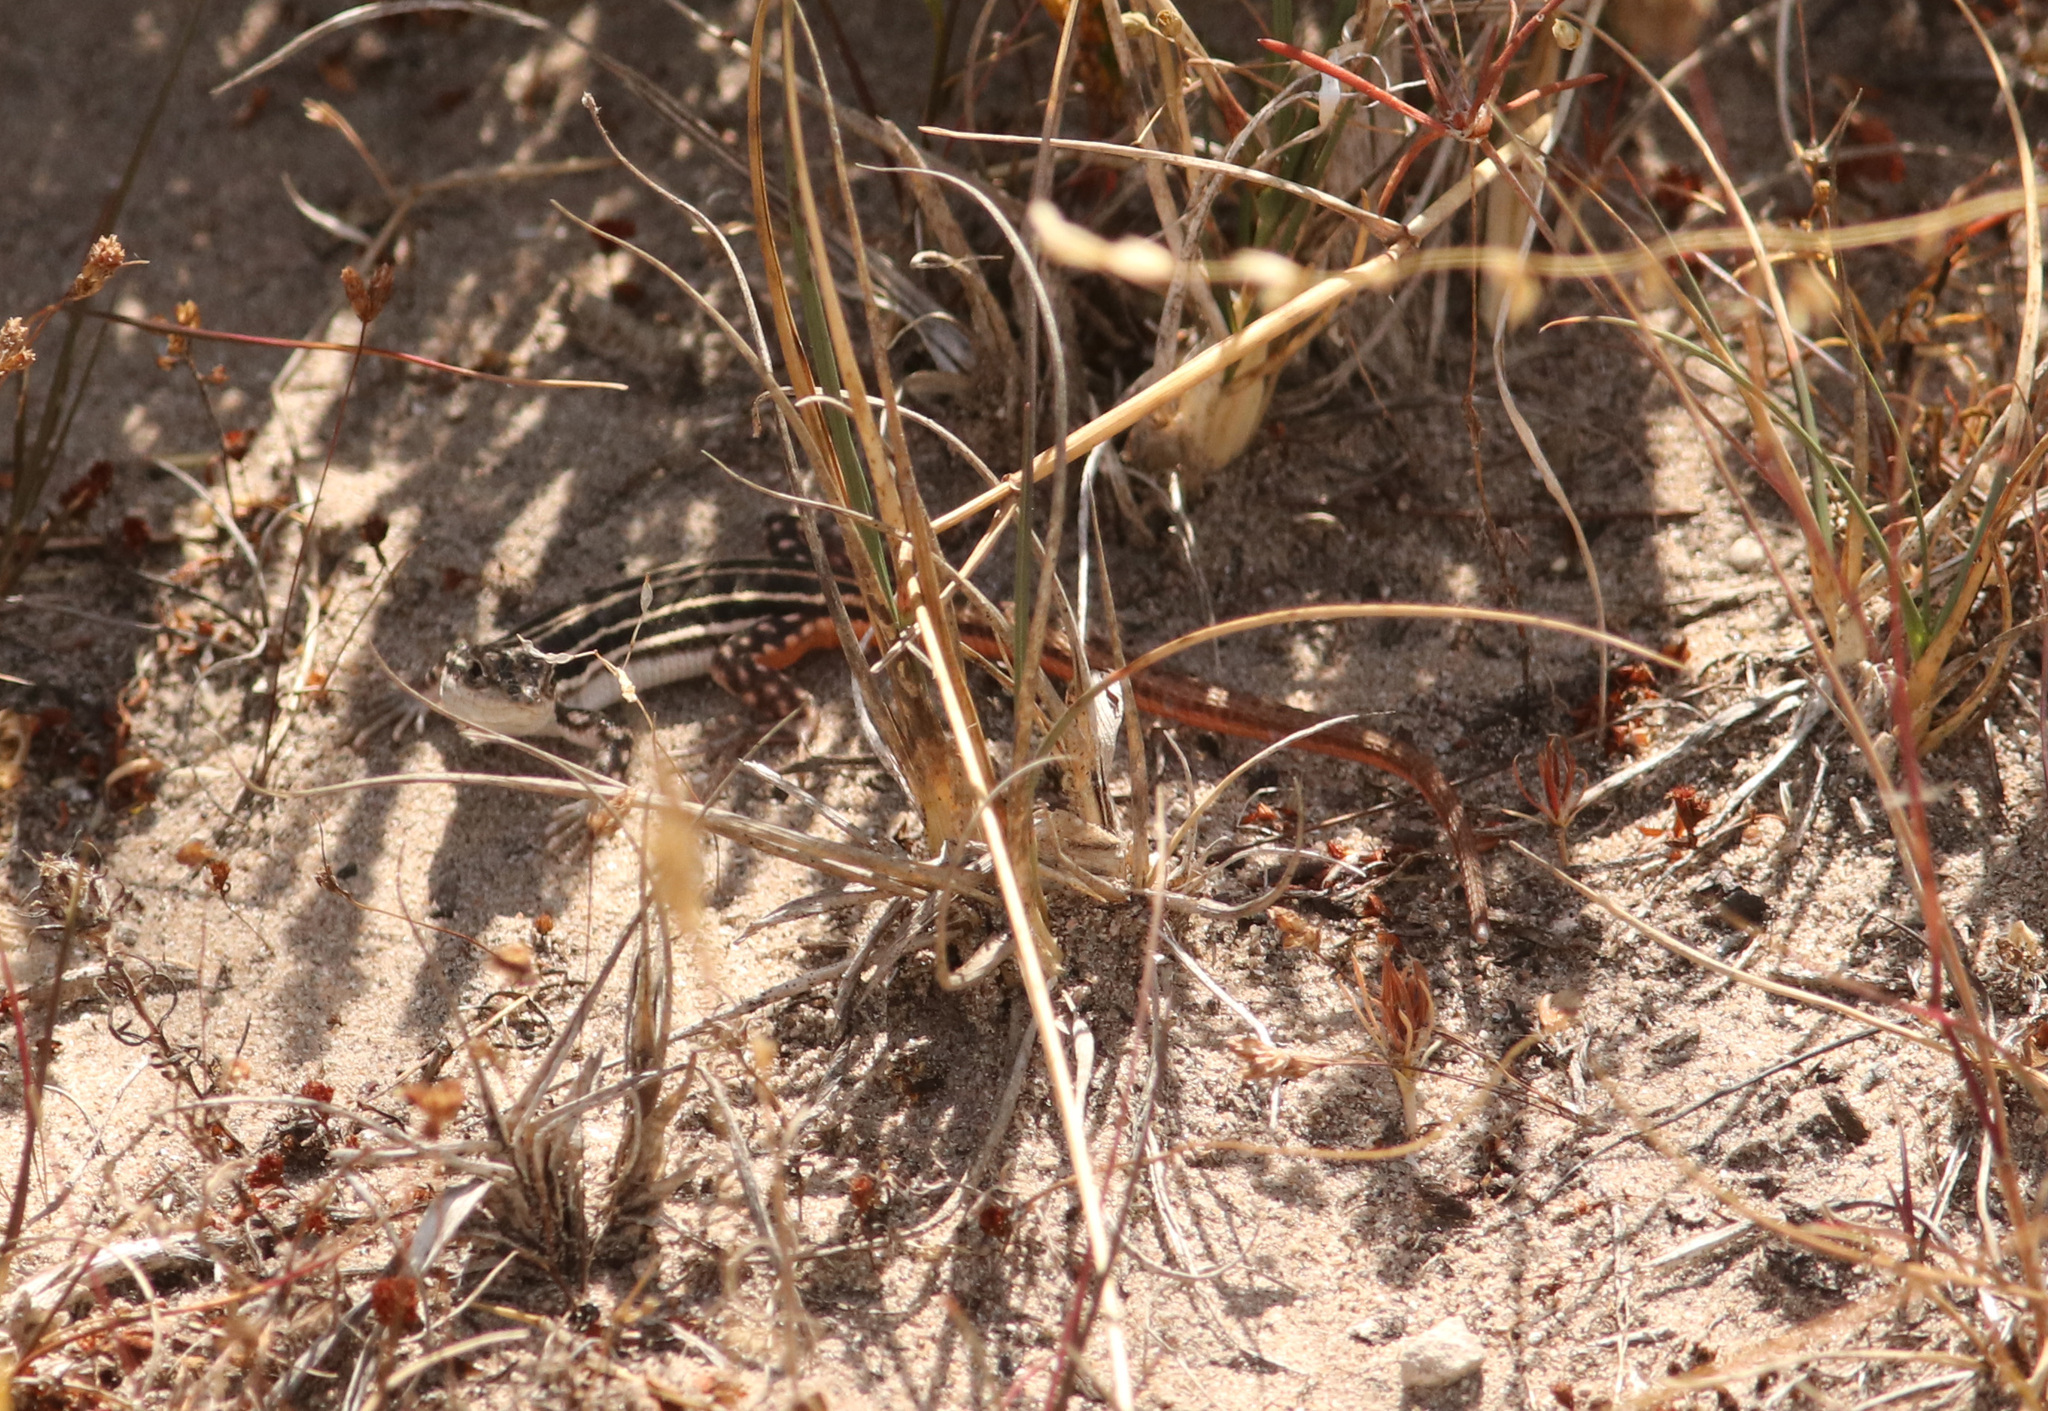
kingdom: Animalia
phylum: Chordata
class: Squamata
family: Lacertidae
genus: Pedioplanis
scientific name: Pedioplanis burchelli
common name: Burchell's sand lizard
